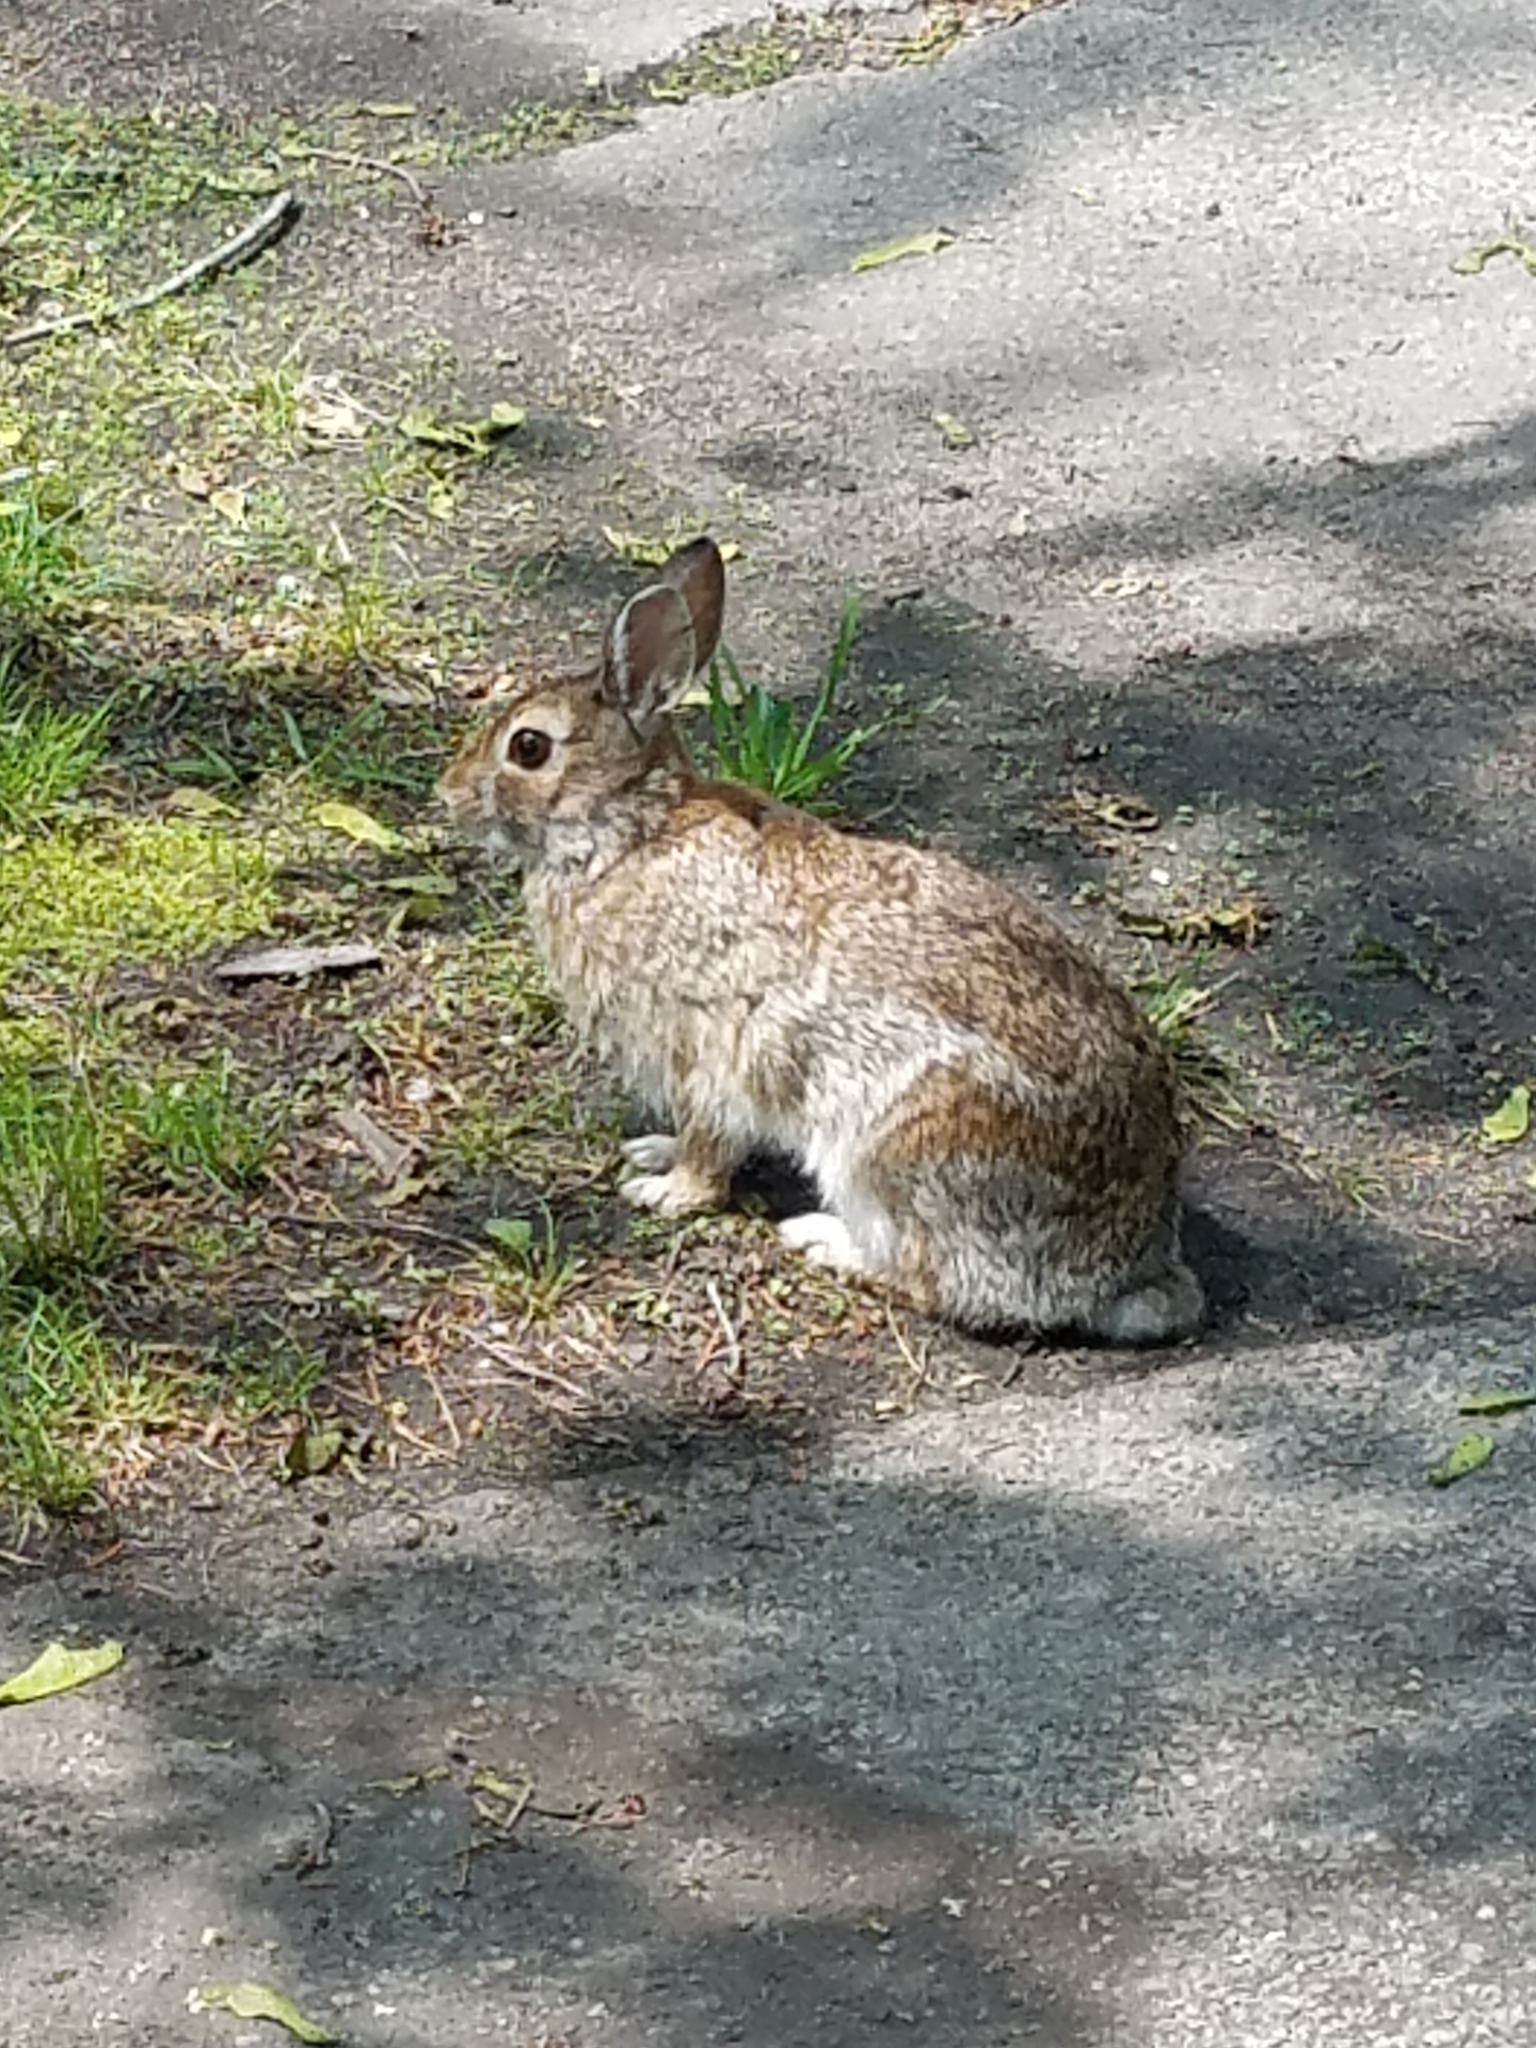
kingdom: Animalia
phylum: Chordata
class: Mammalia
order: Lagomorpha
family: Leporidae
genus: Sylvilagus
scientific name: Sylvilagus floridanus
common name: Eastern cottontail
